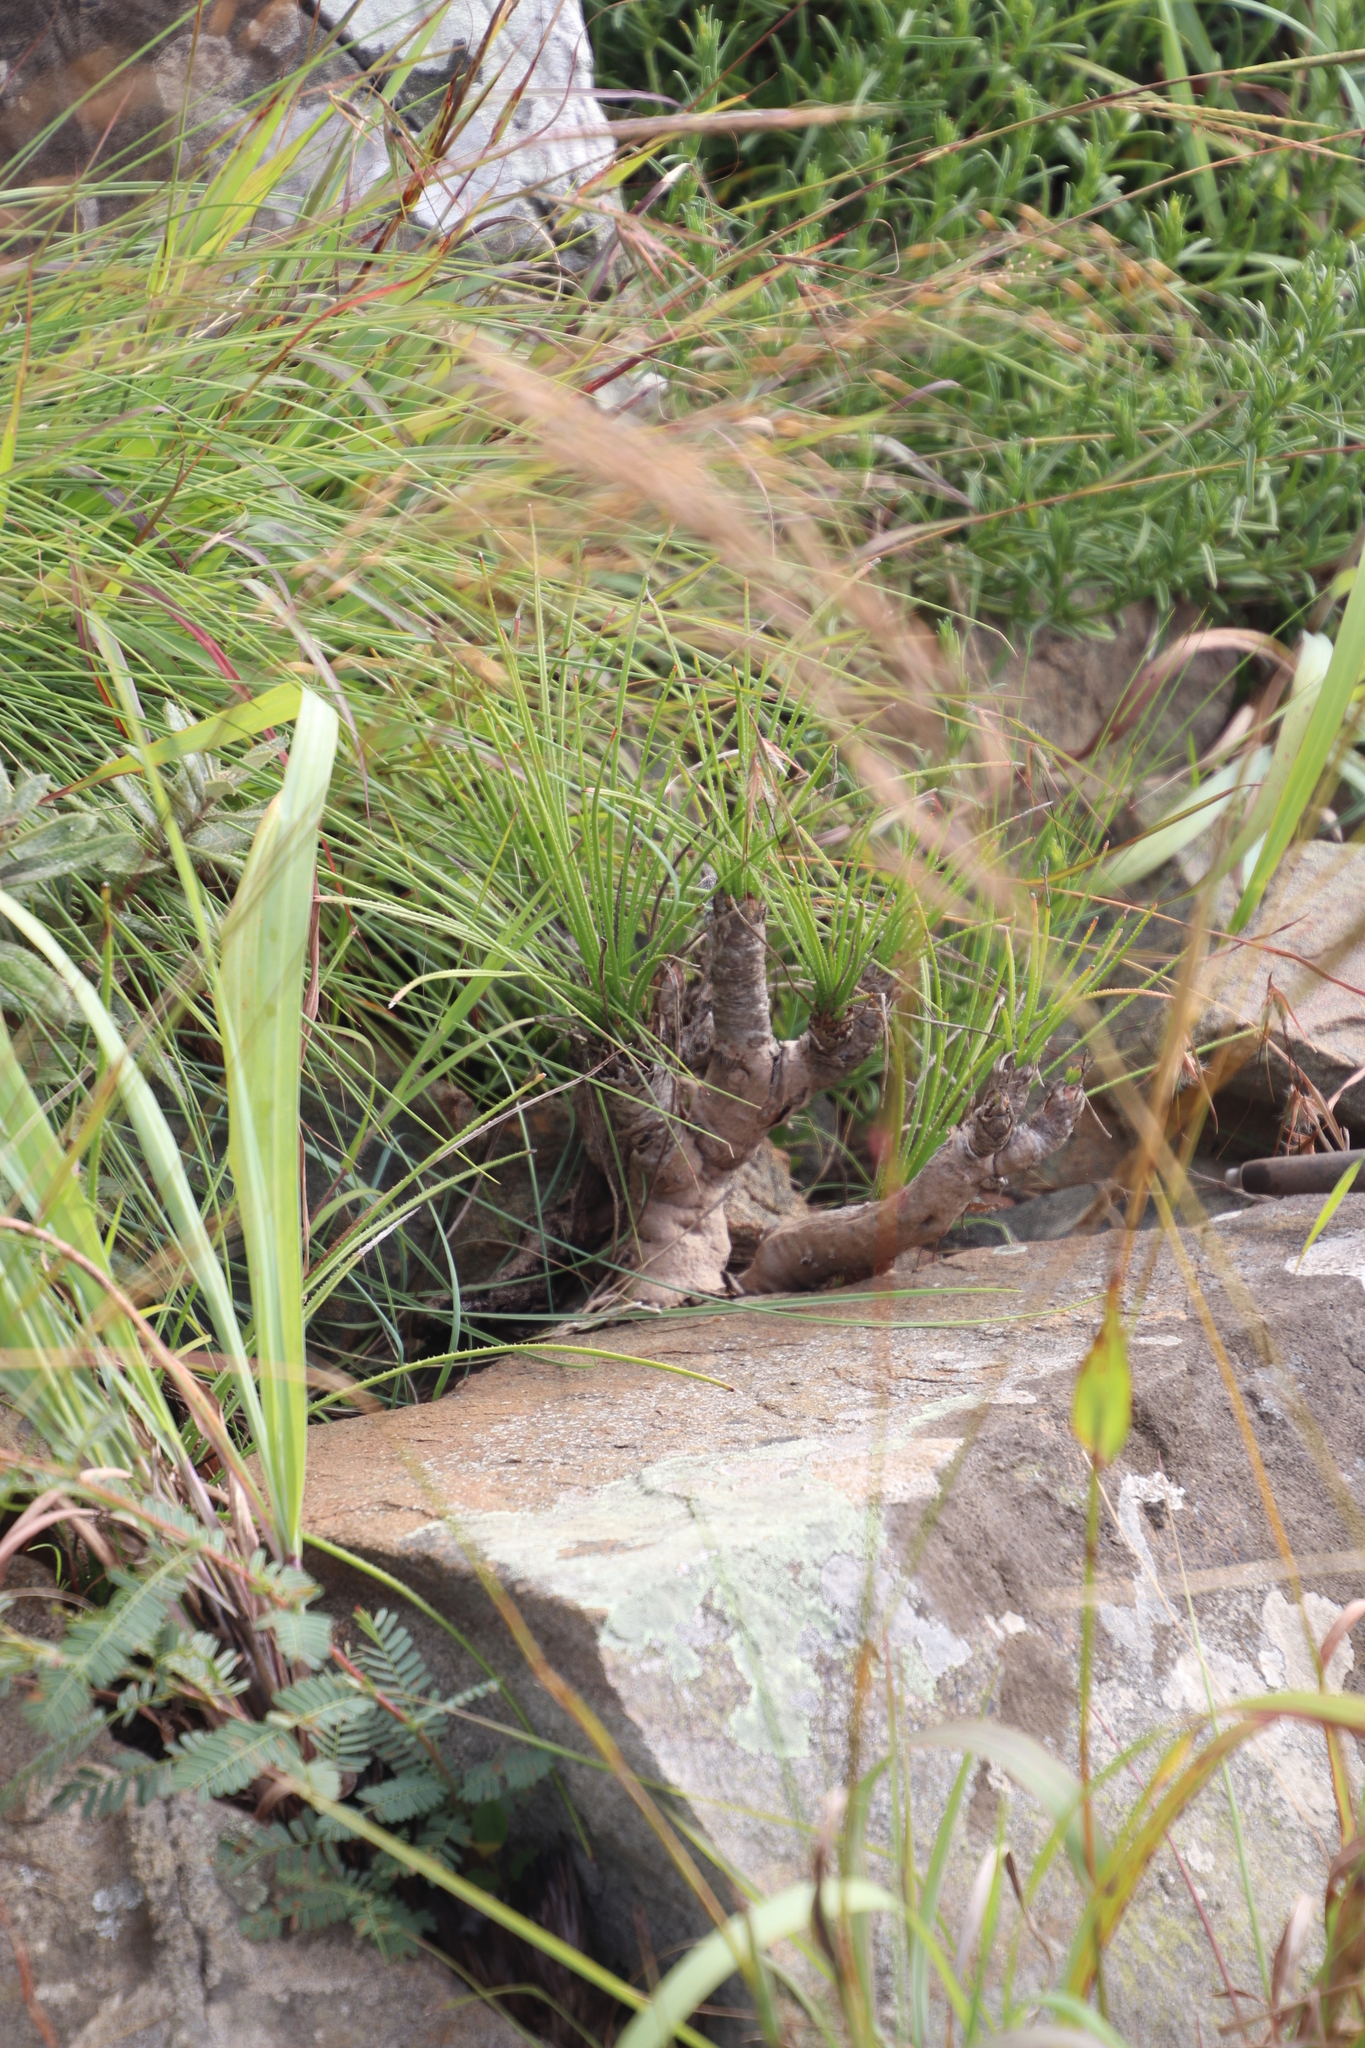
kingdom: Plantae
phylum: Tracheophyta
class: Liliopsida
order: Asparagales
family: Asphodelaceae
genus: Aloe
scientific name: Aloe chortolirioides
